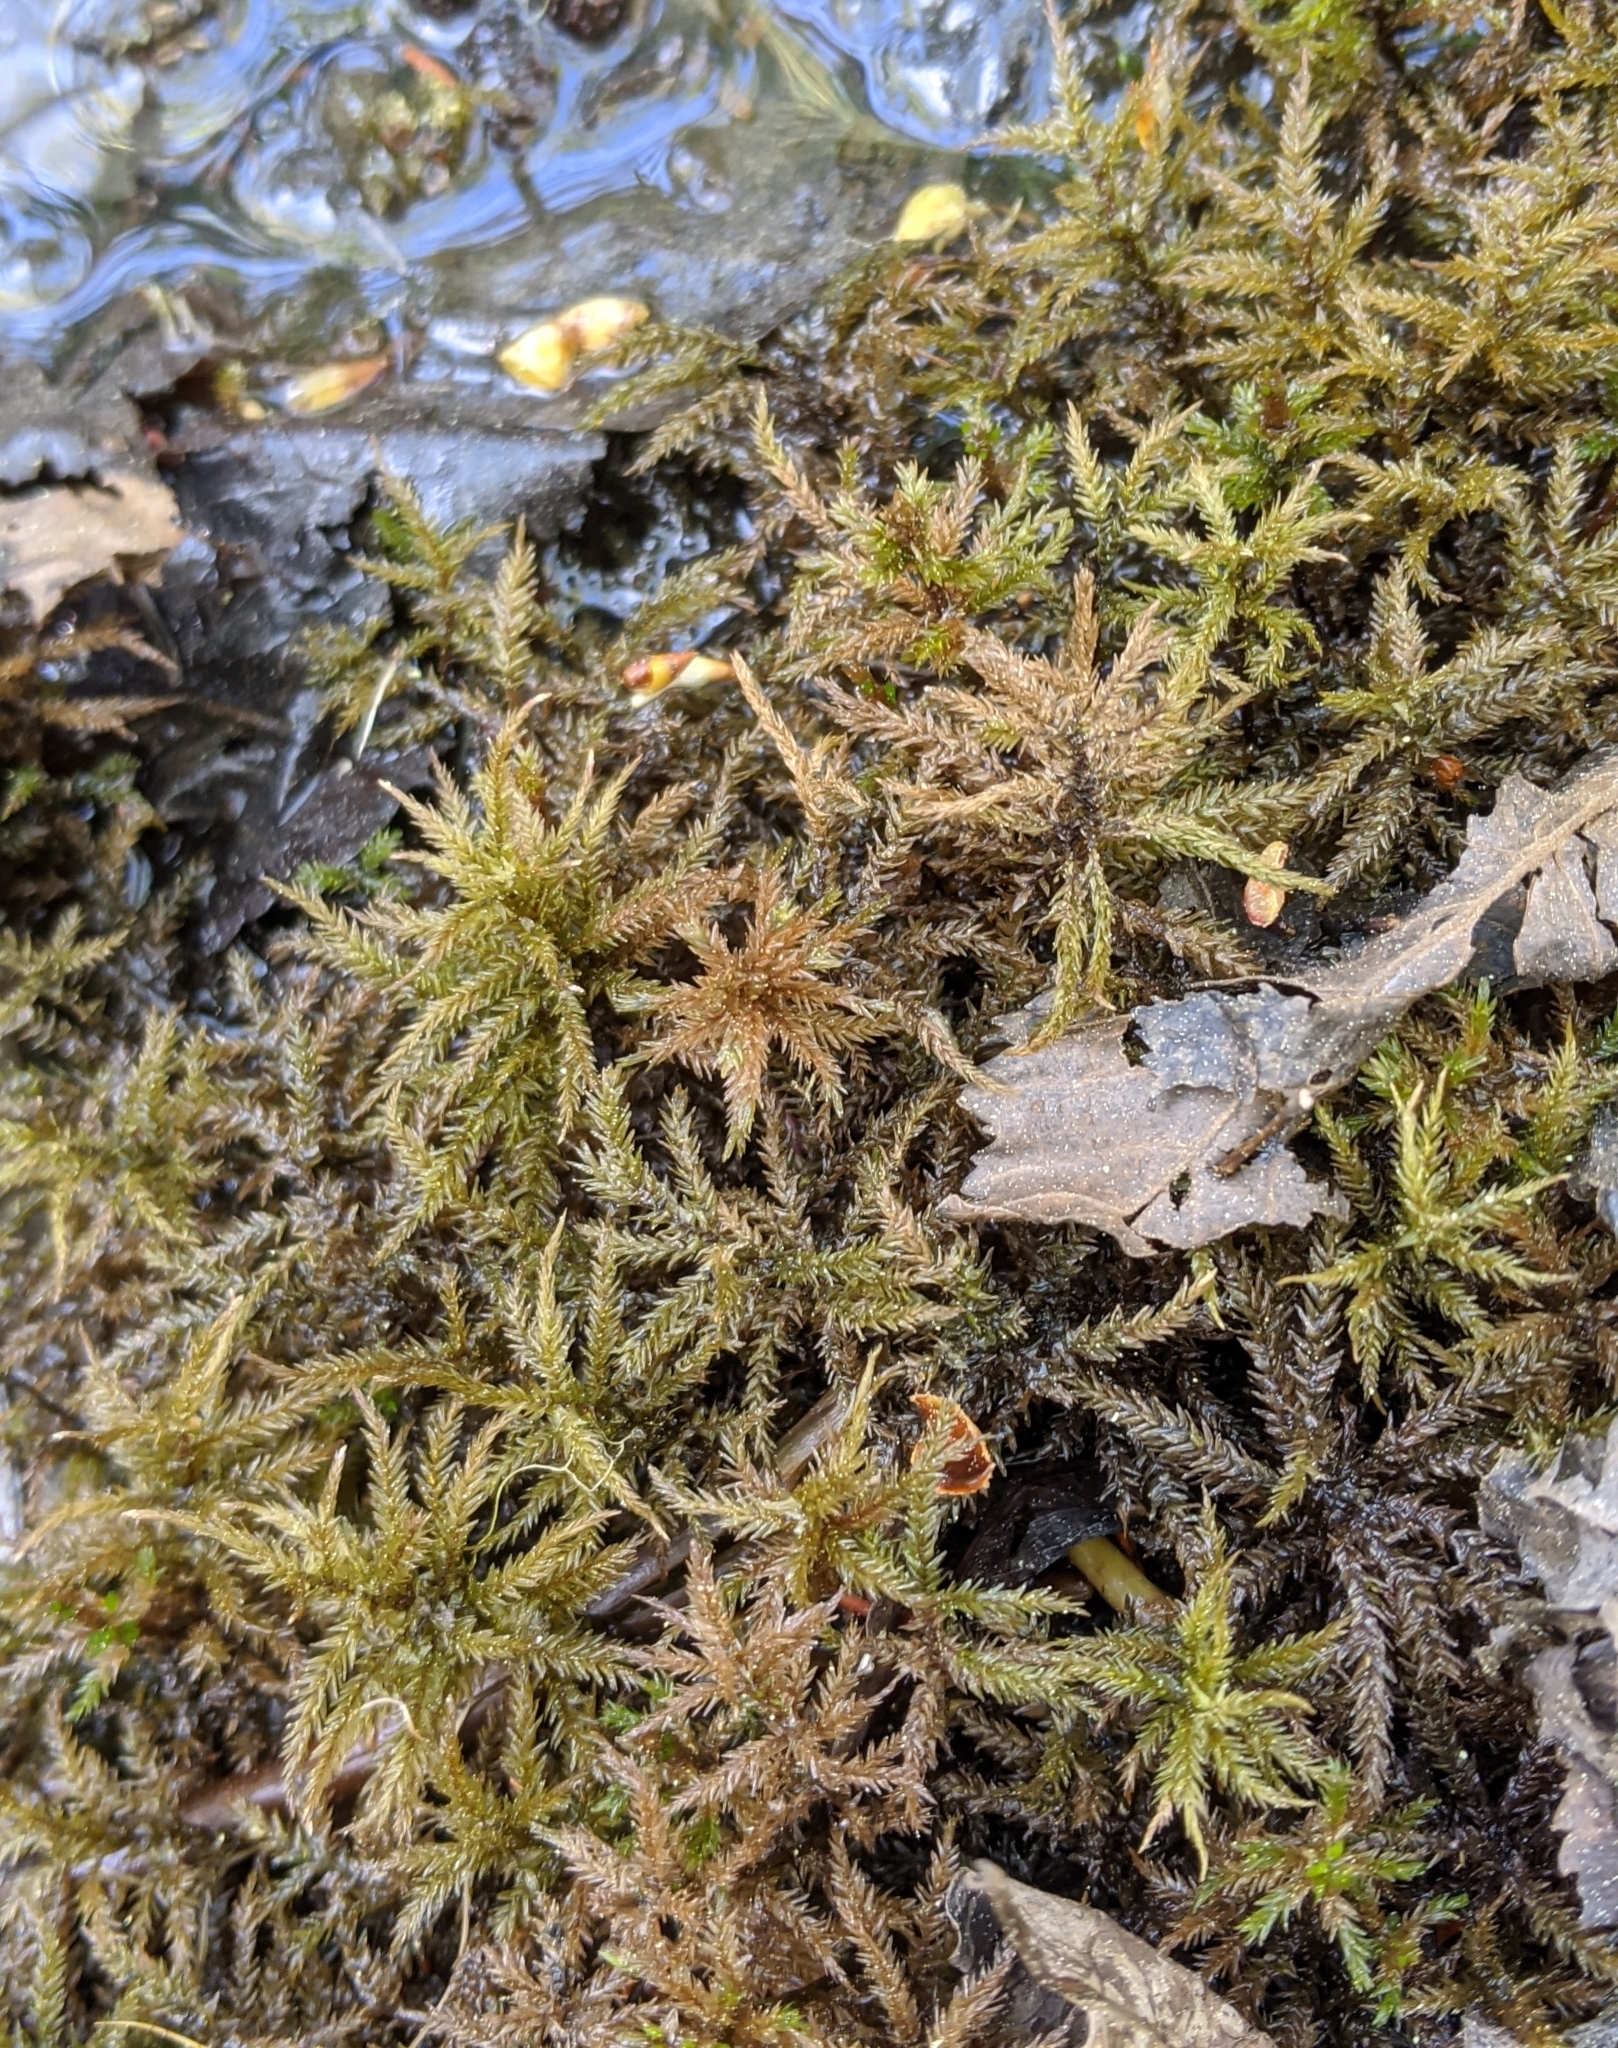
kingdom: Plantae
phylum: Bryophyta
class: Bryopsida
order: Hypnales
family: Climaciaceae
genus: Climacium
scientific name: Climacium dendroides
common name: Northern tree moss
